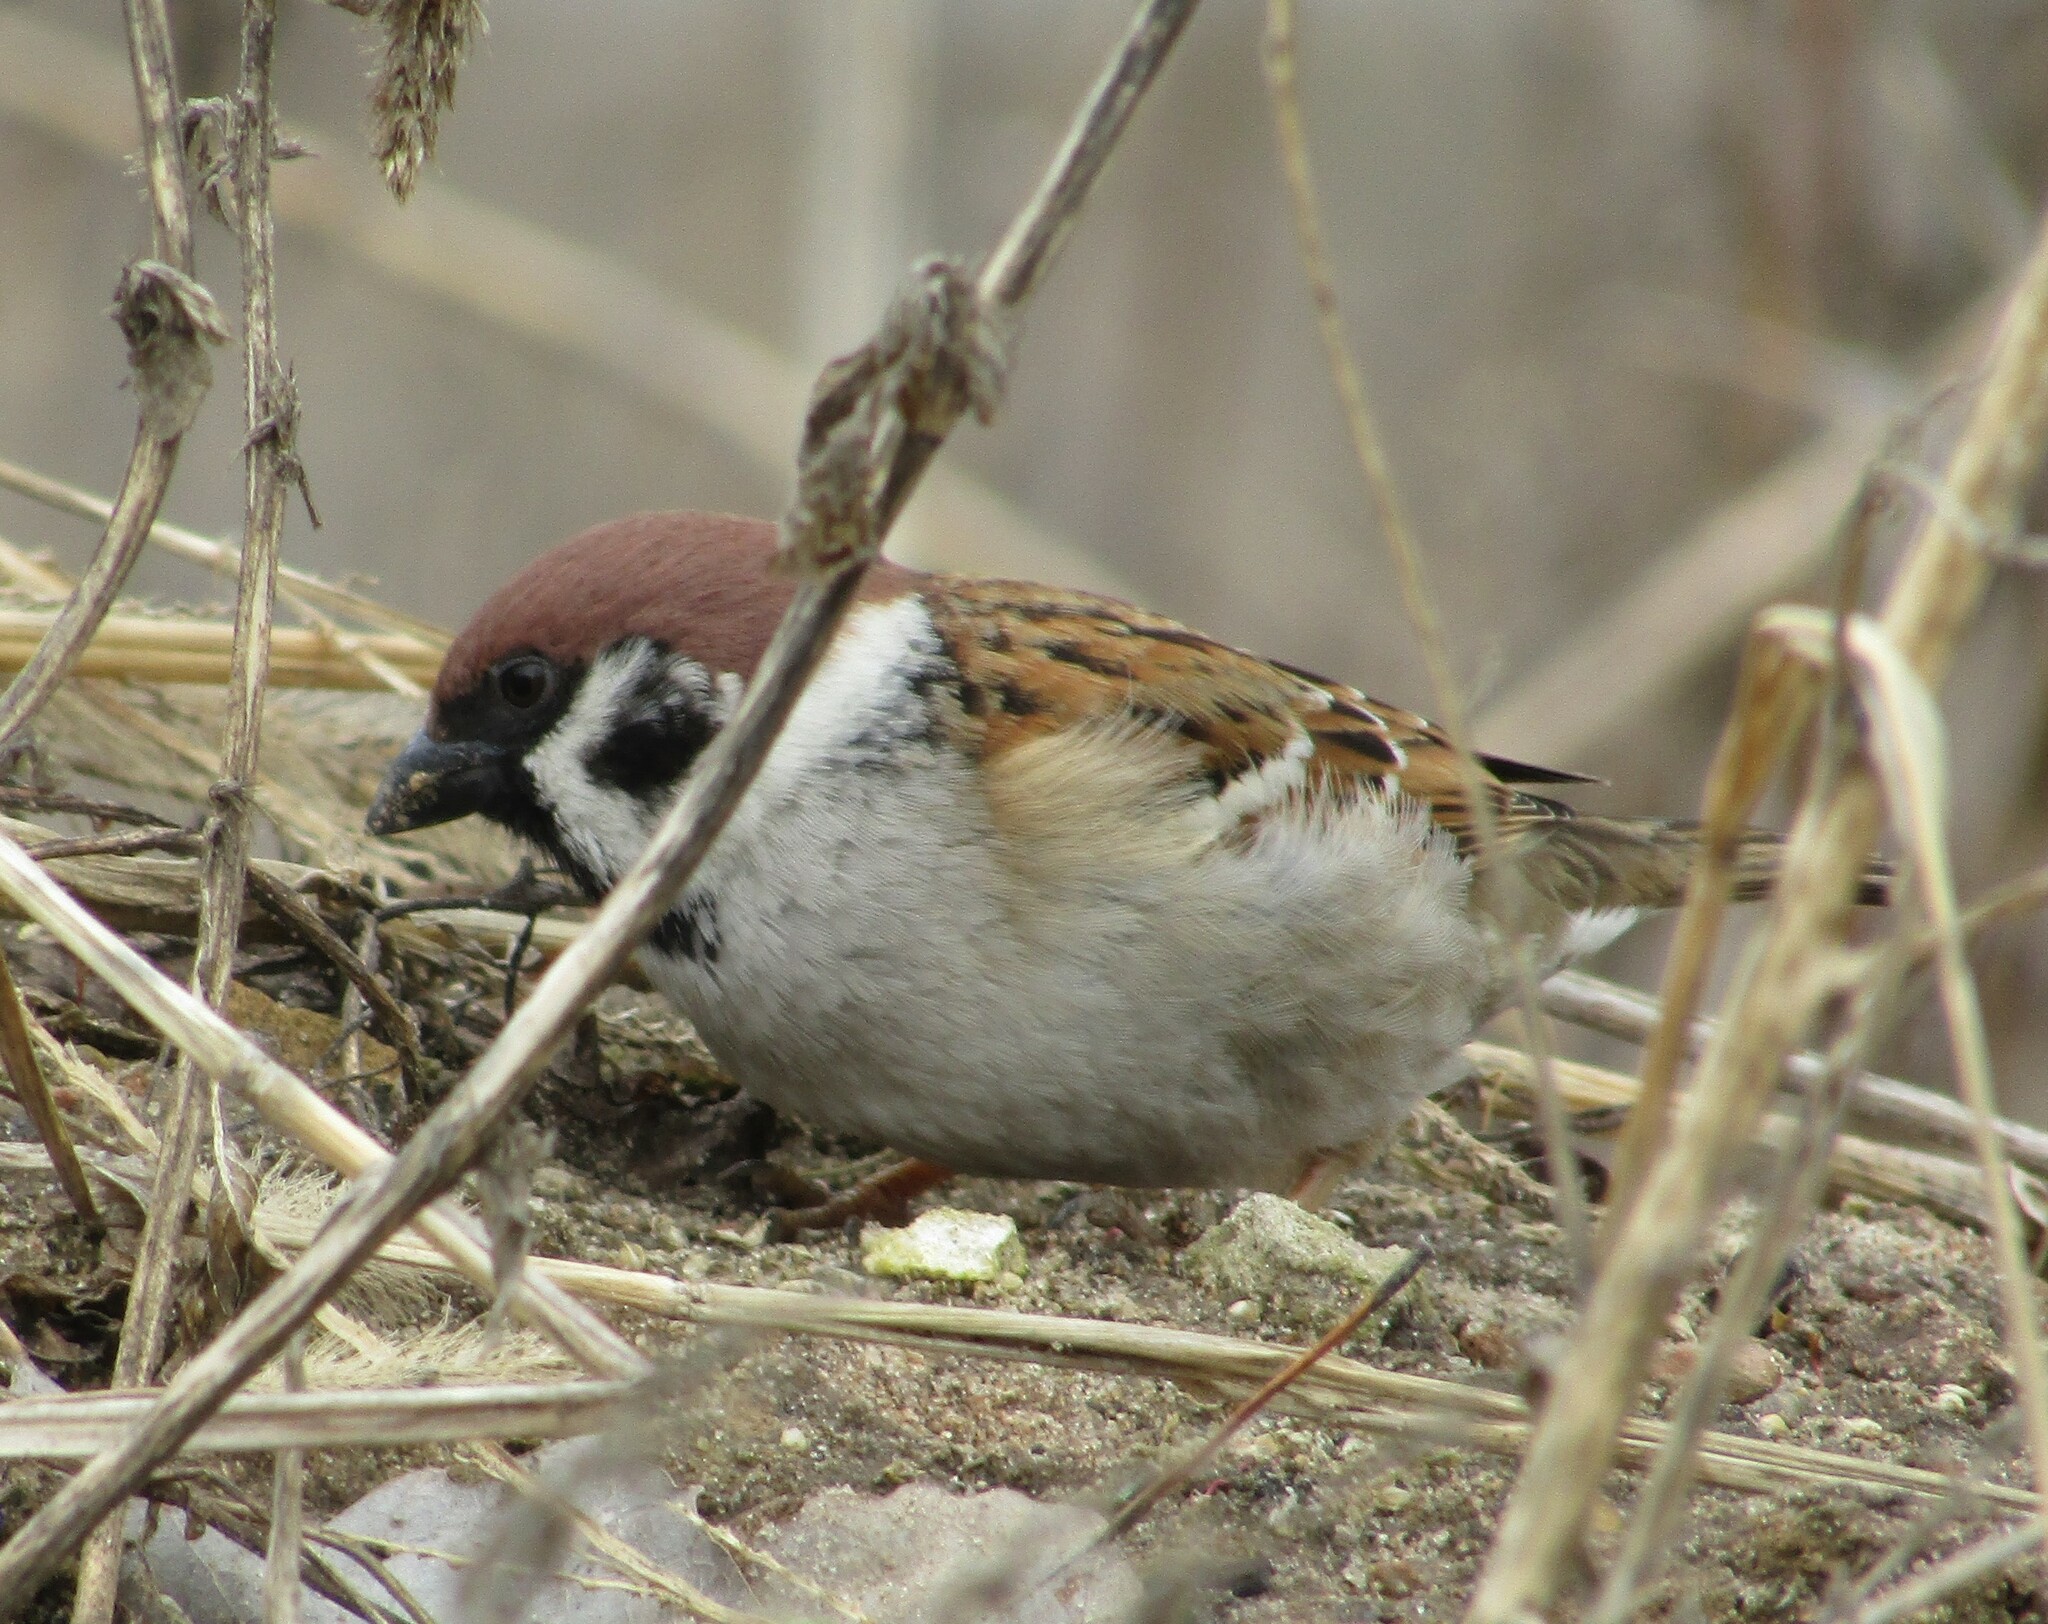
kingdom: Animalia
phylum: Chordata
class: Aves
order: Passeriformes
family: Passeridae
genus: Passer
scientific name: Passer montanus
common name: Eurasian tree sparrow
